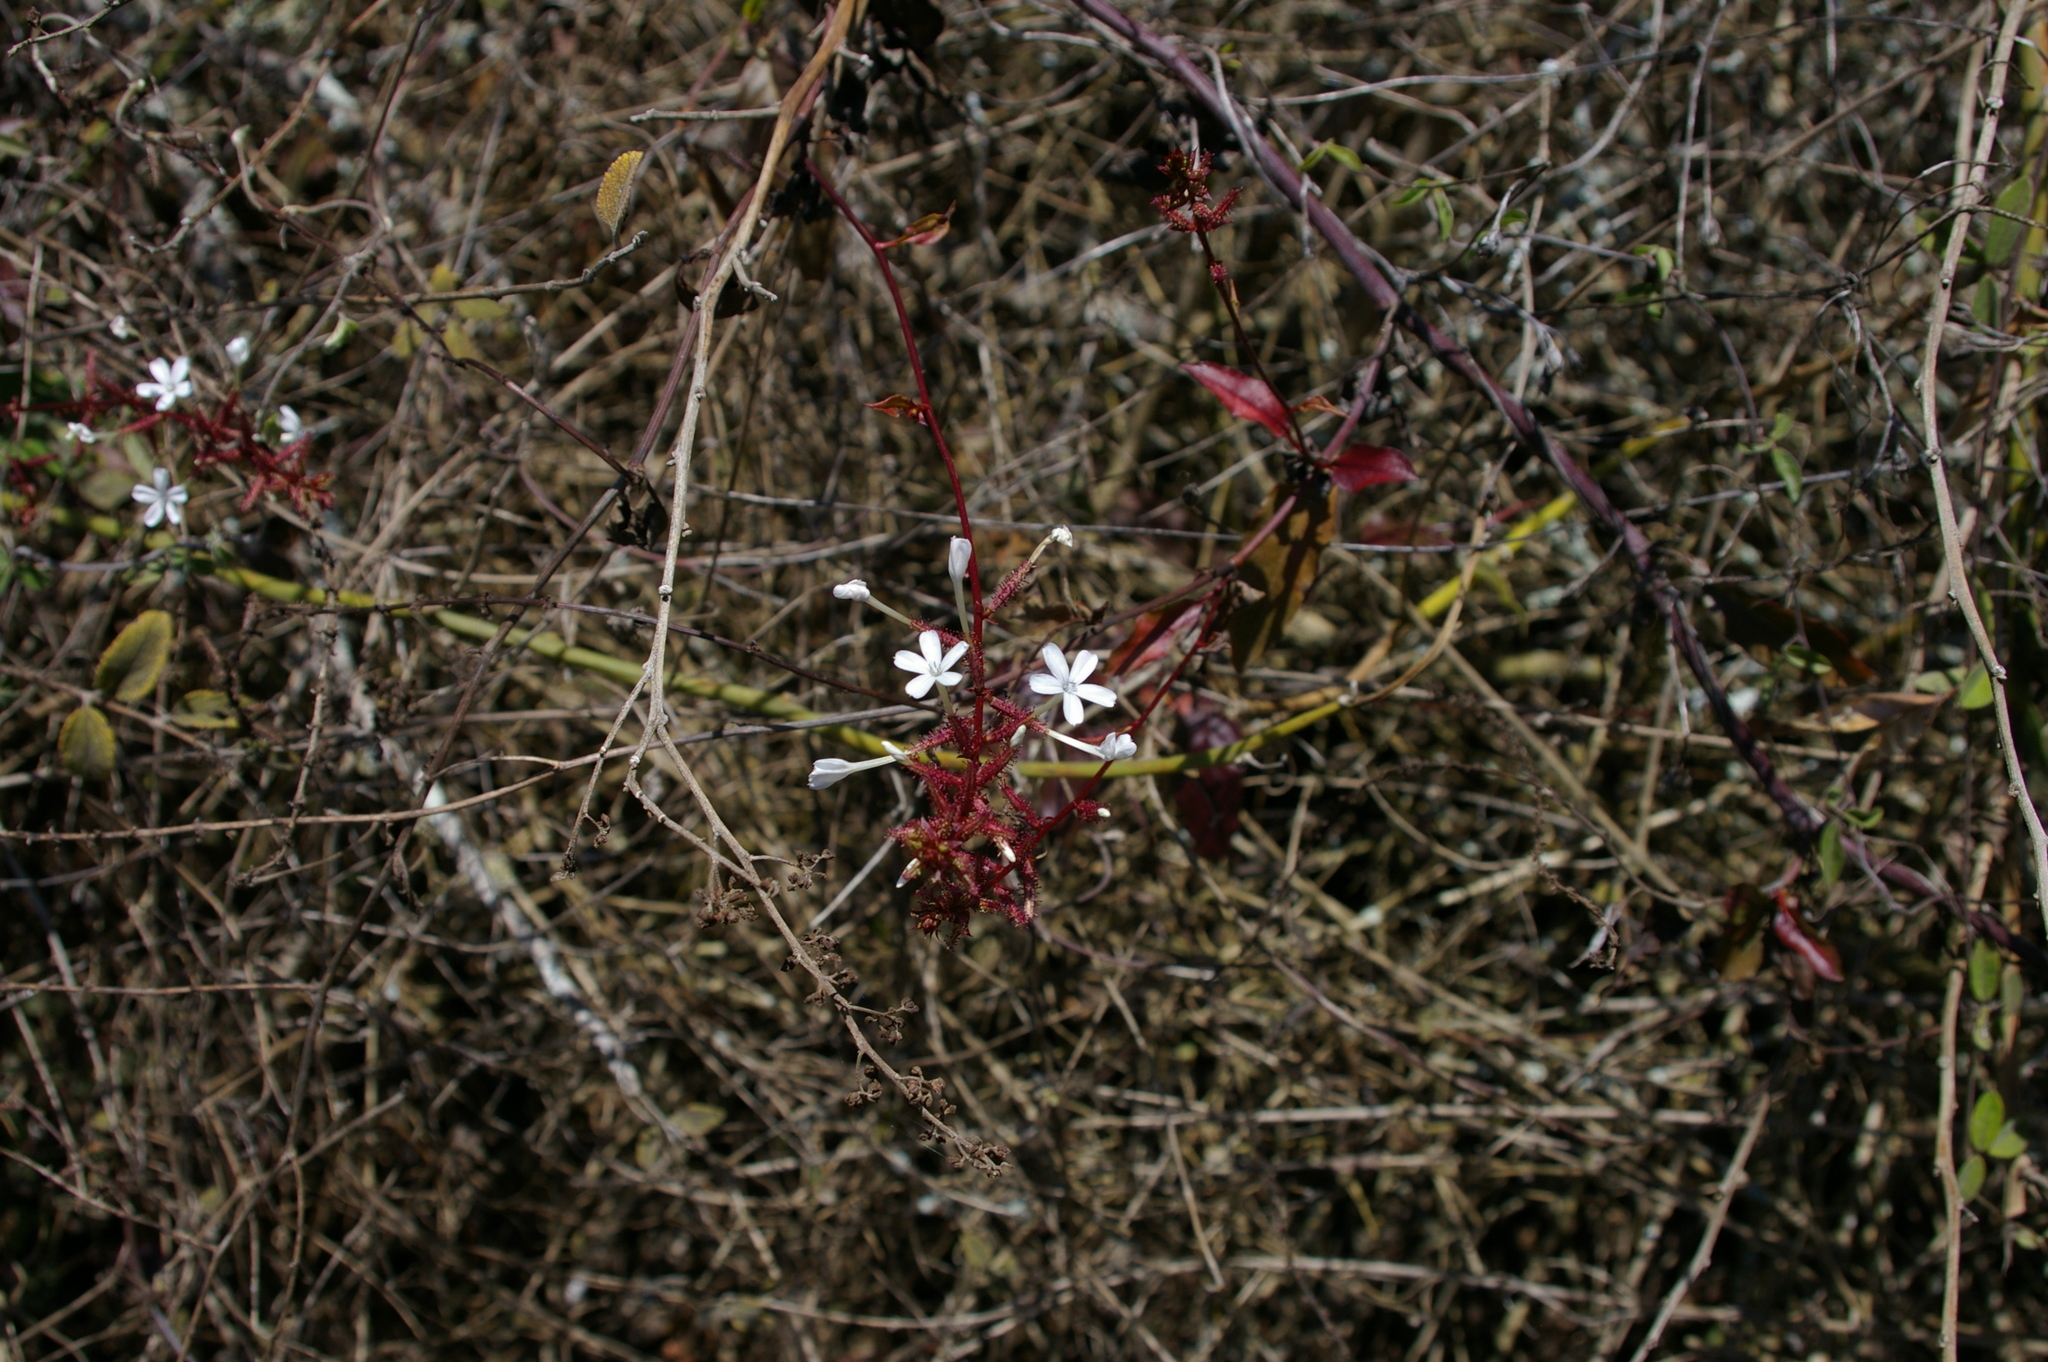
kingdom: Plantae
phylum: Tracheophyta
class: Magnoliopsida
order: Caryophyllales
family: Plumbaginaceae
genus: Plumbago
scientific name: Plumbago zeylanica
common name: Doctorbush
